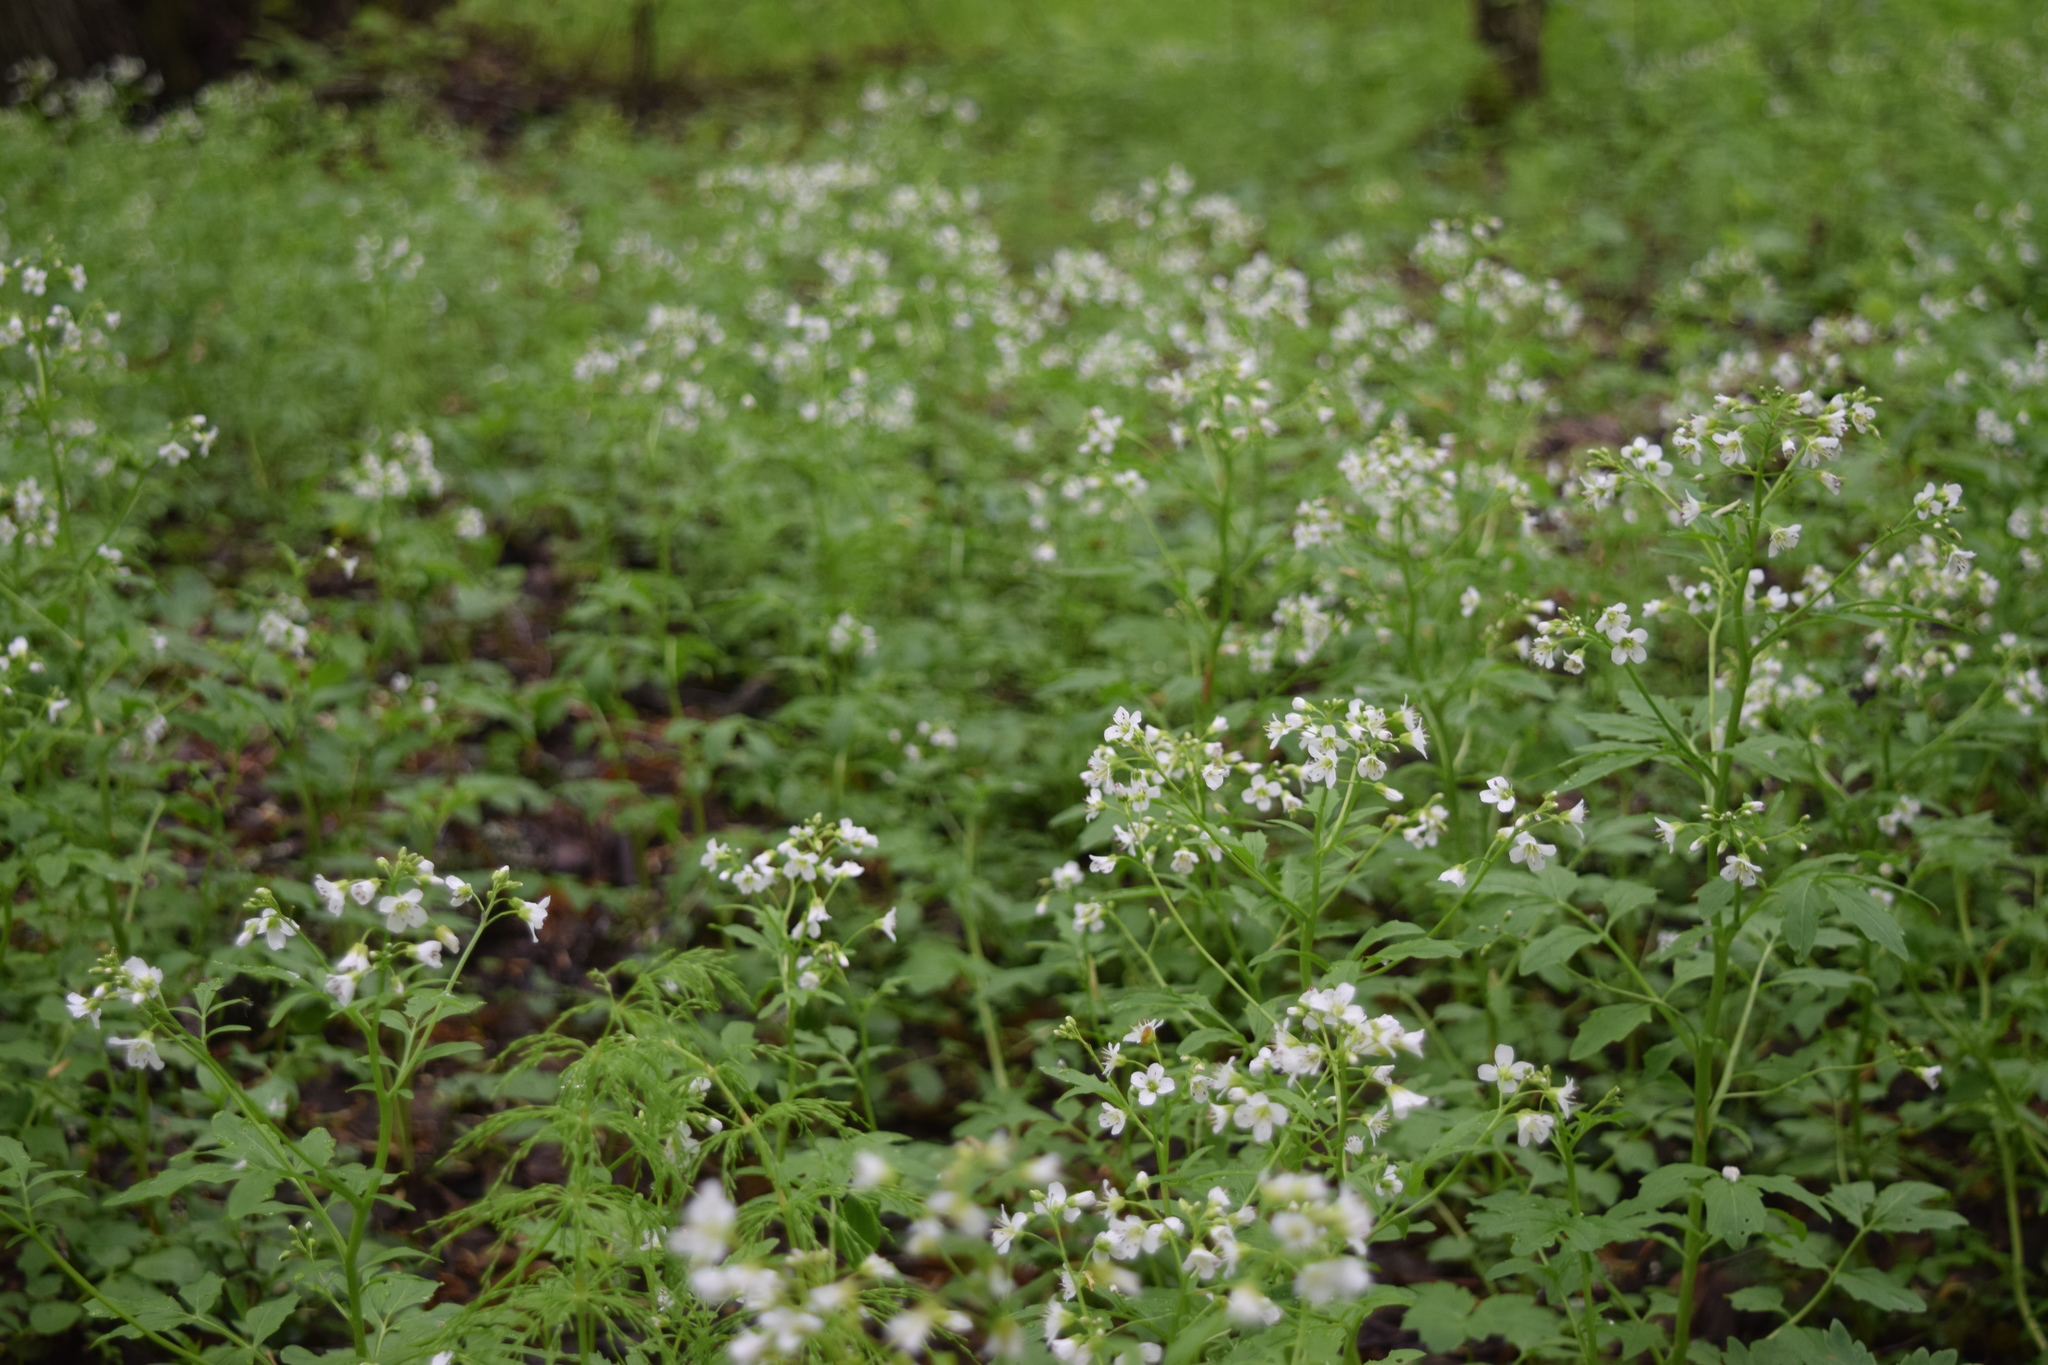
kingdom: Plantae
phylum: Tracheophyta
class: Magnoliopsida
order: Brassicales
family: Brassicaceae
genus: Cardamine
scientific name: Cardamine amara
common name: Large bitter-cress
